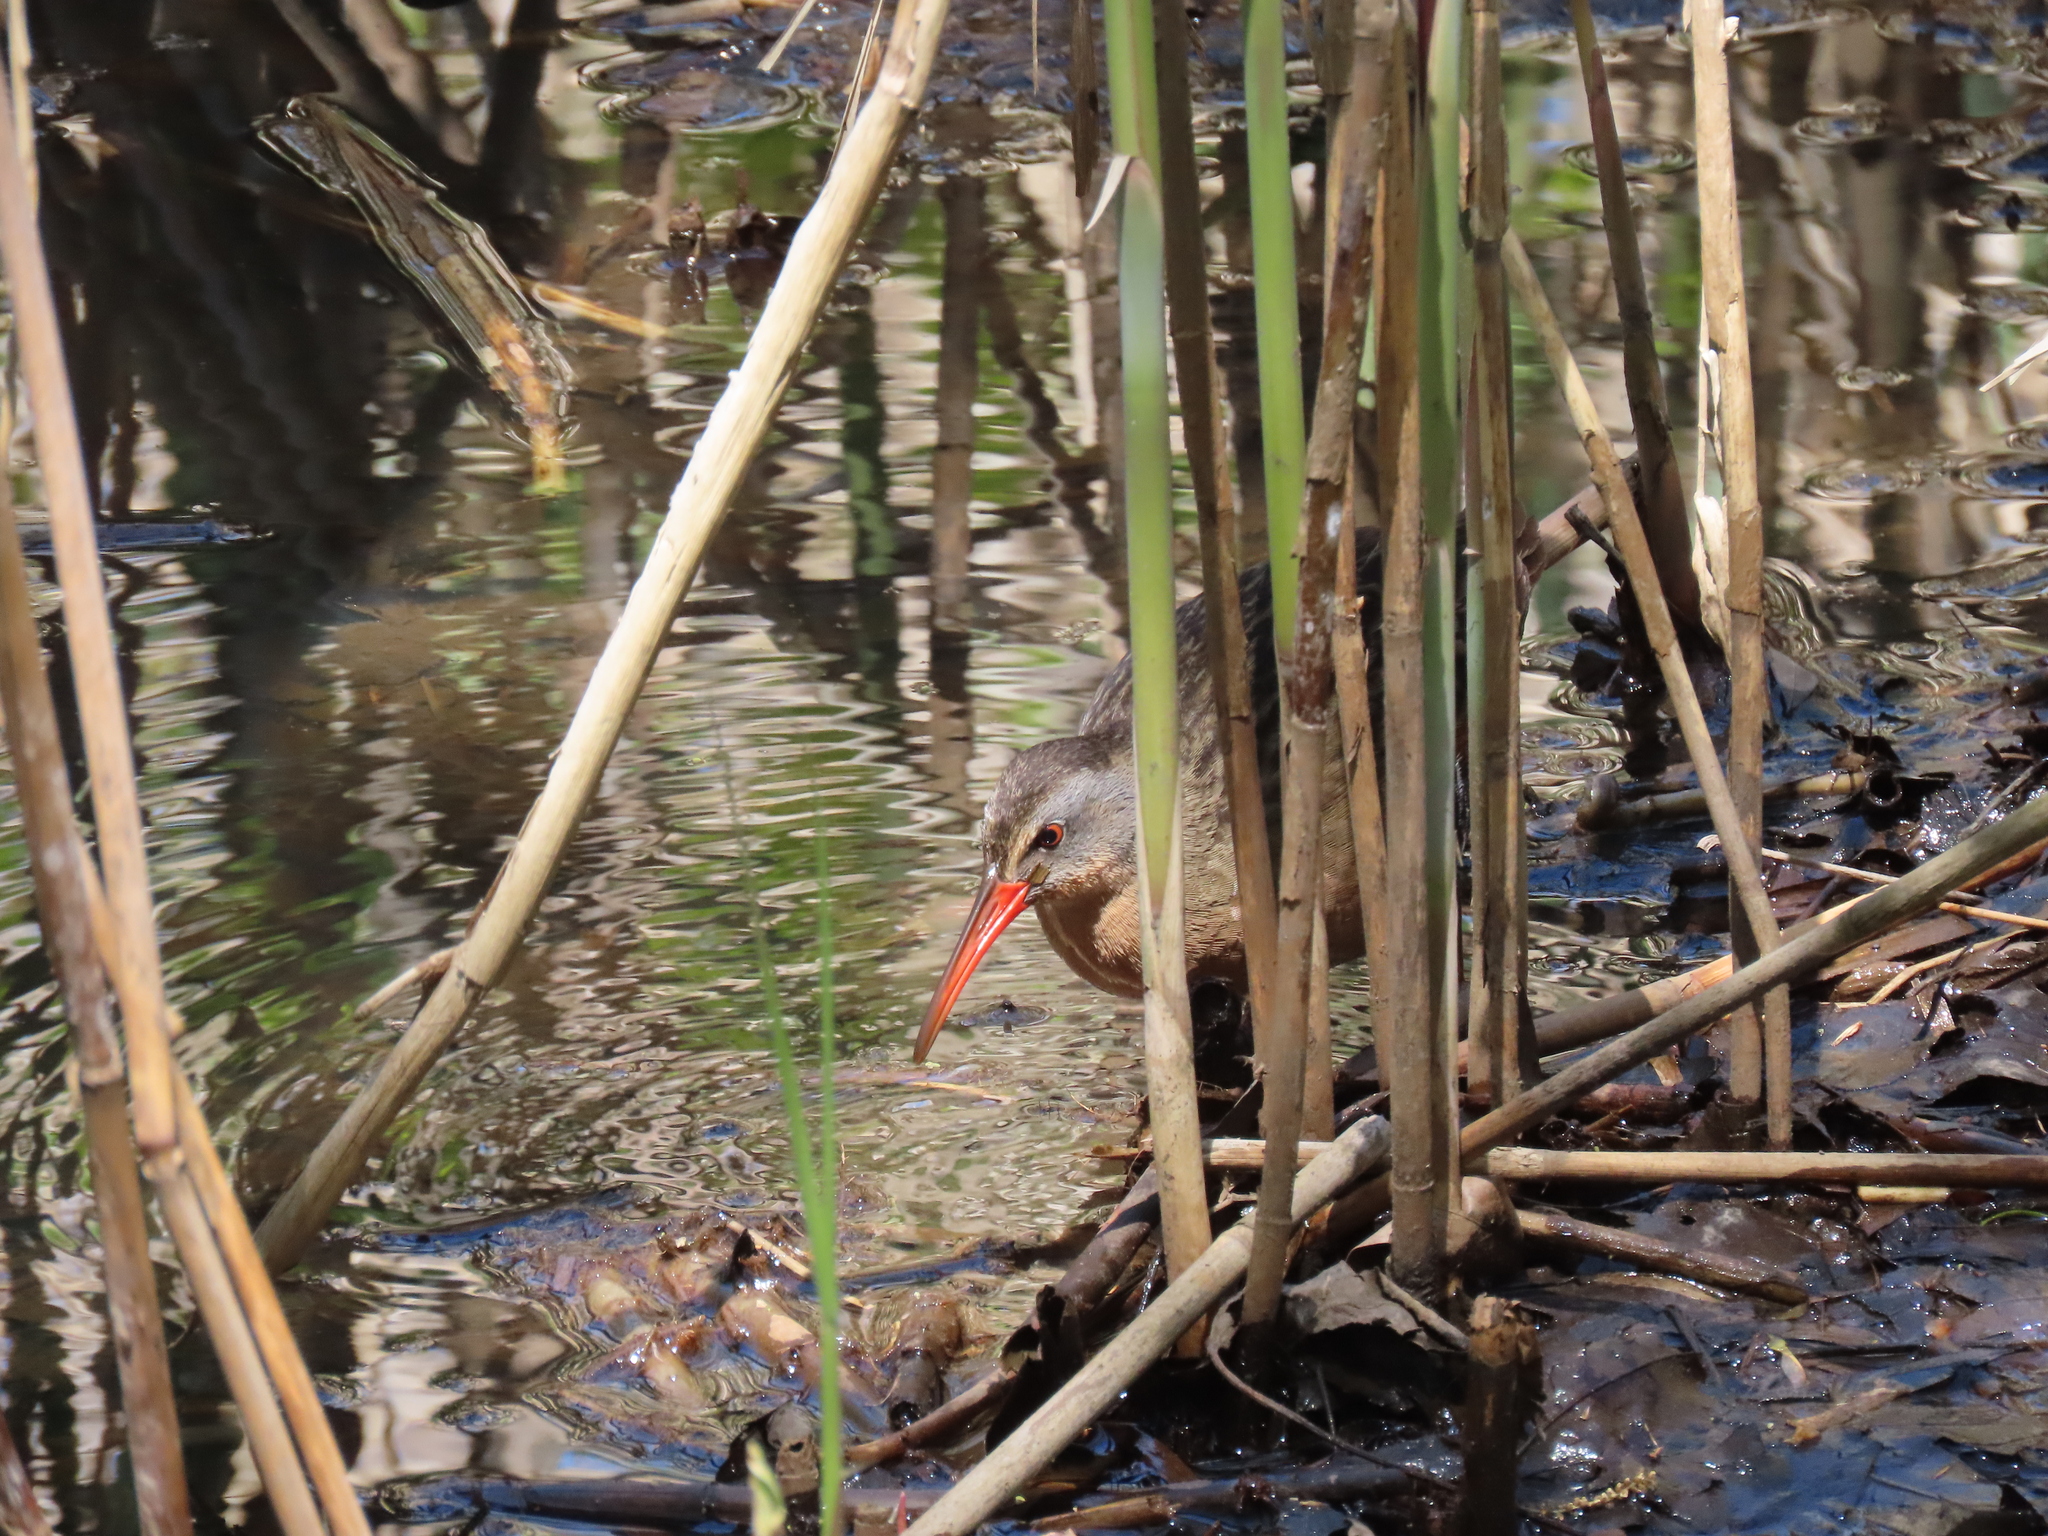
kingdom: Animalia
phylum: Chordata
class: Aves
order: Gruiformes
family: Rallidae
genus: Rallus
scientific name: Rallus limicola
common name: Virginia rail
